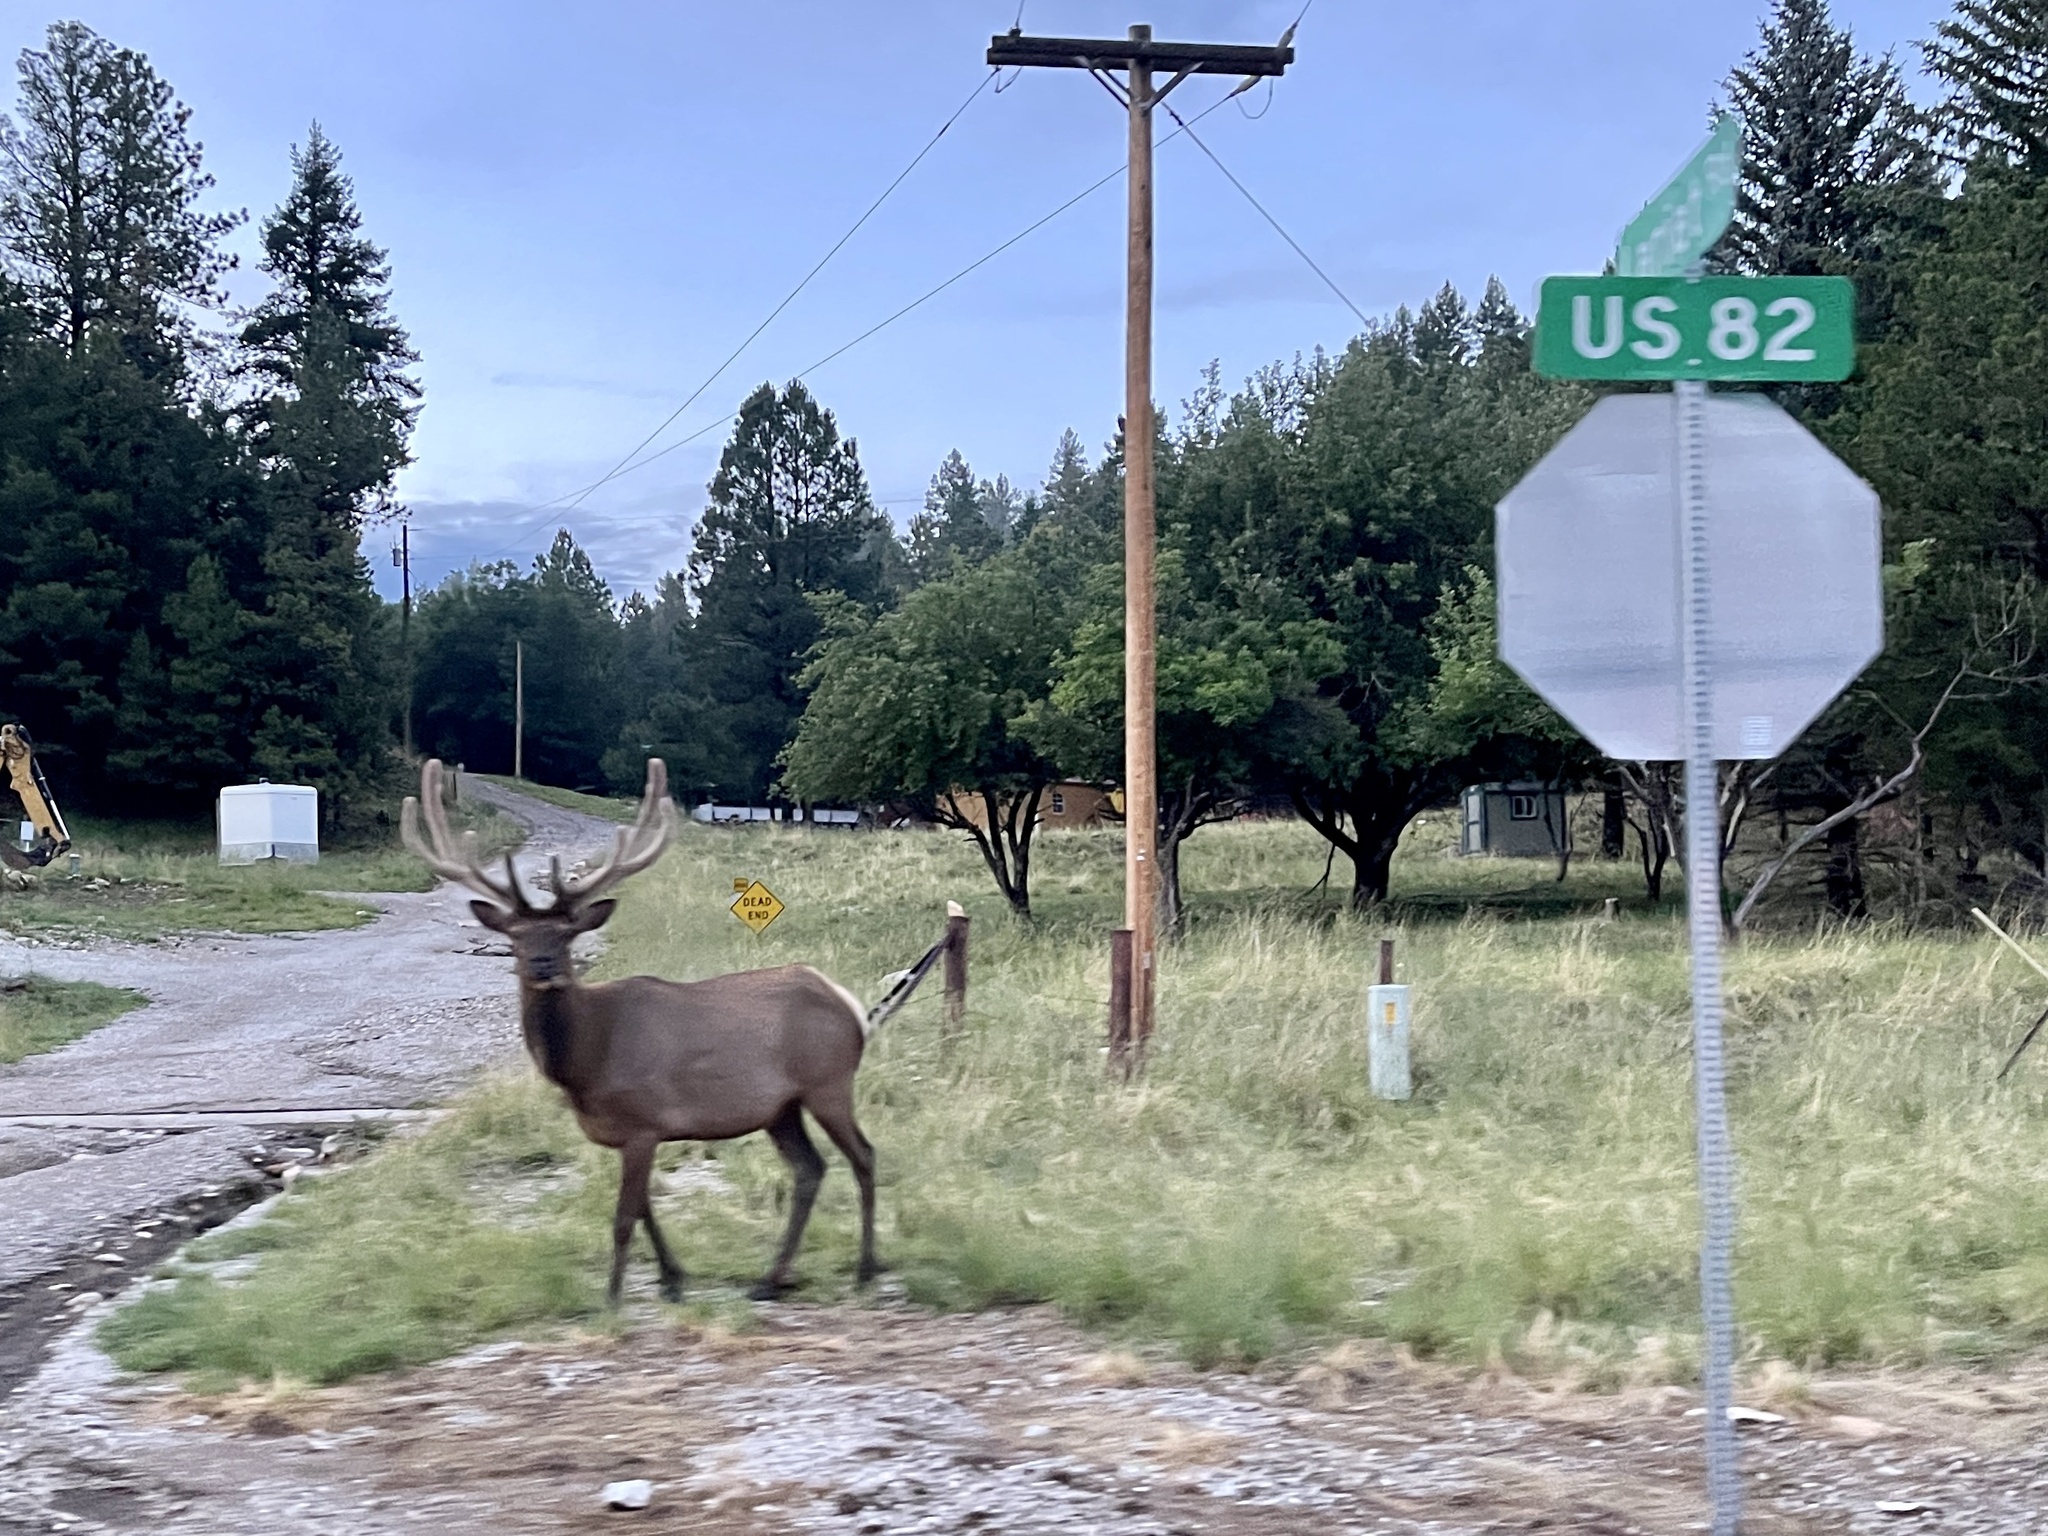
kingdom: Animalia
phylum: Chordata
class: Mammalia
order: Artiodactyla
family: Cervidae
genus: Cervus
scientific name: Cervus elaphus
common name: Red deer
